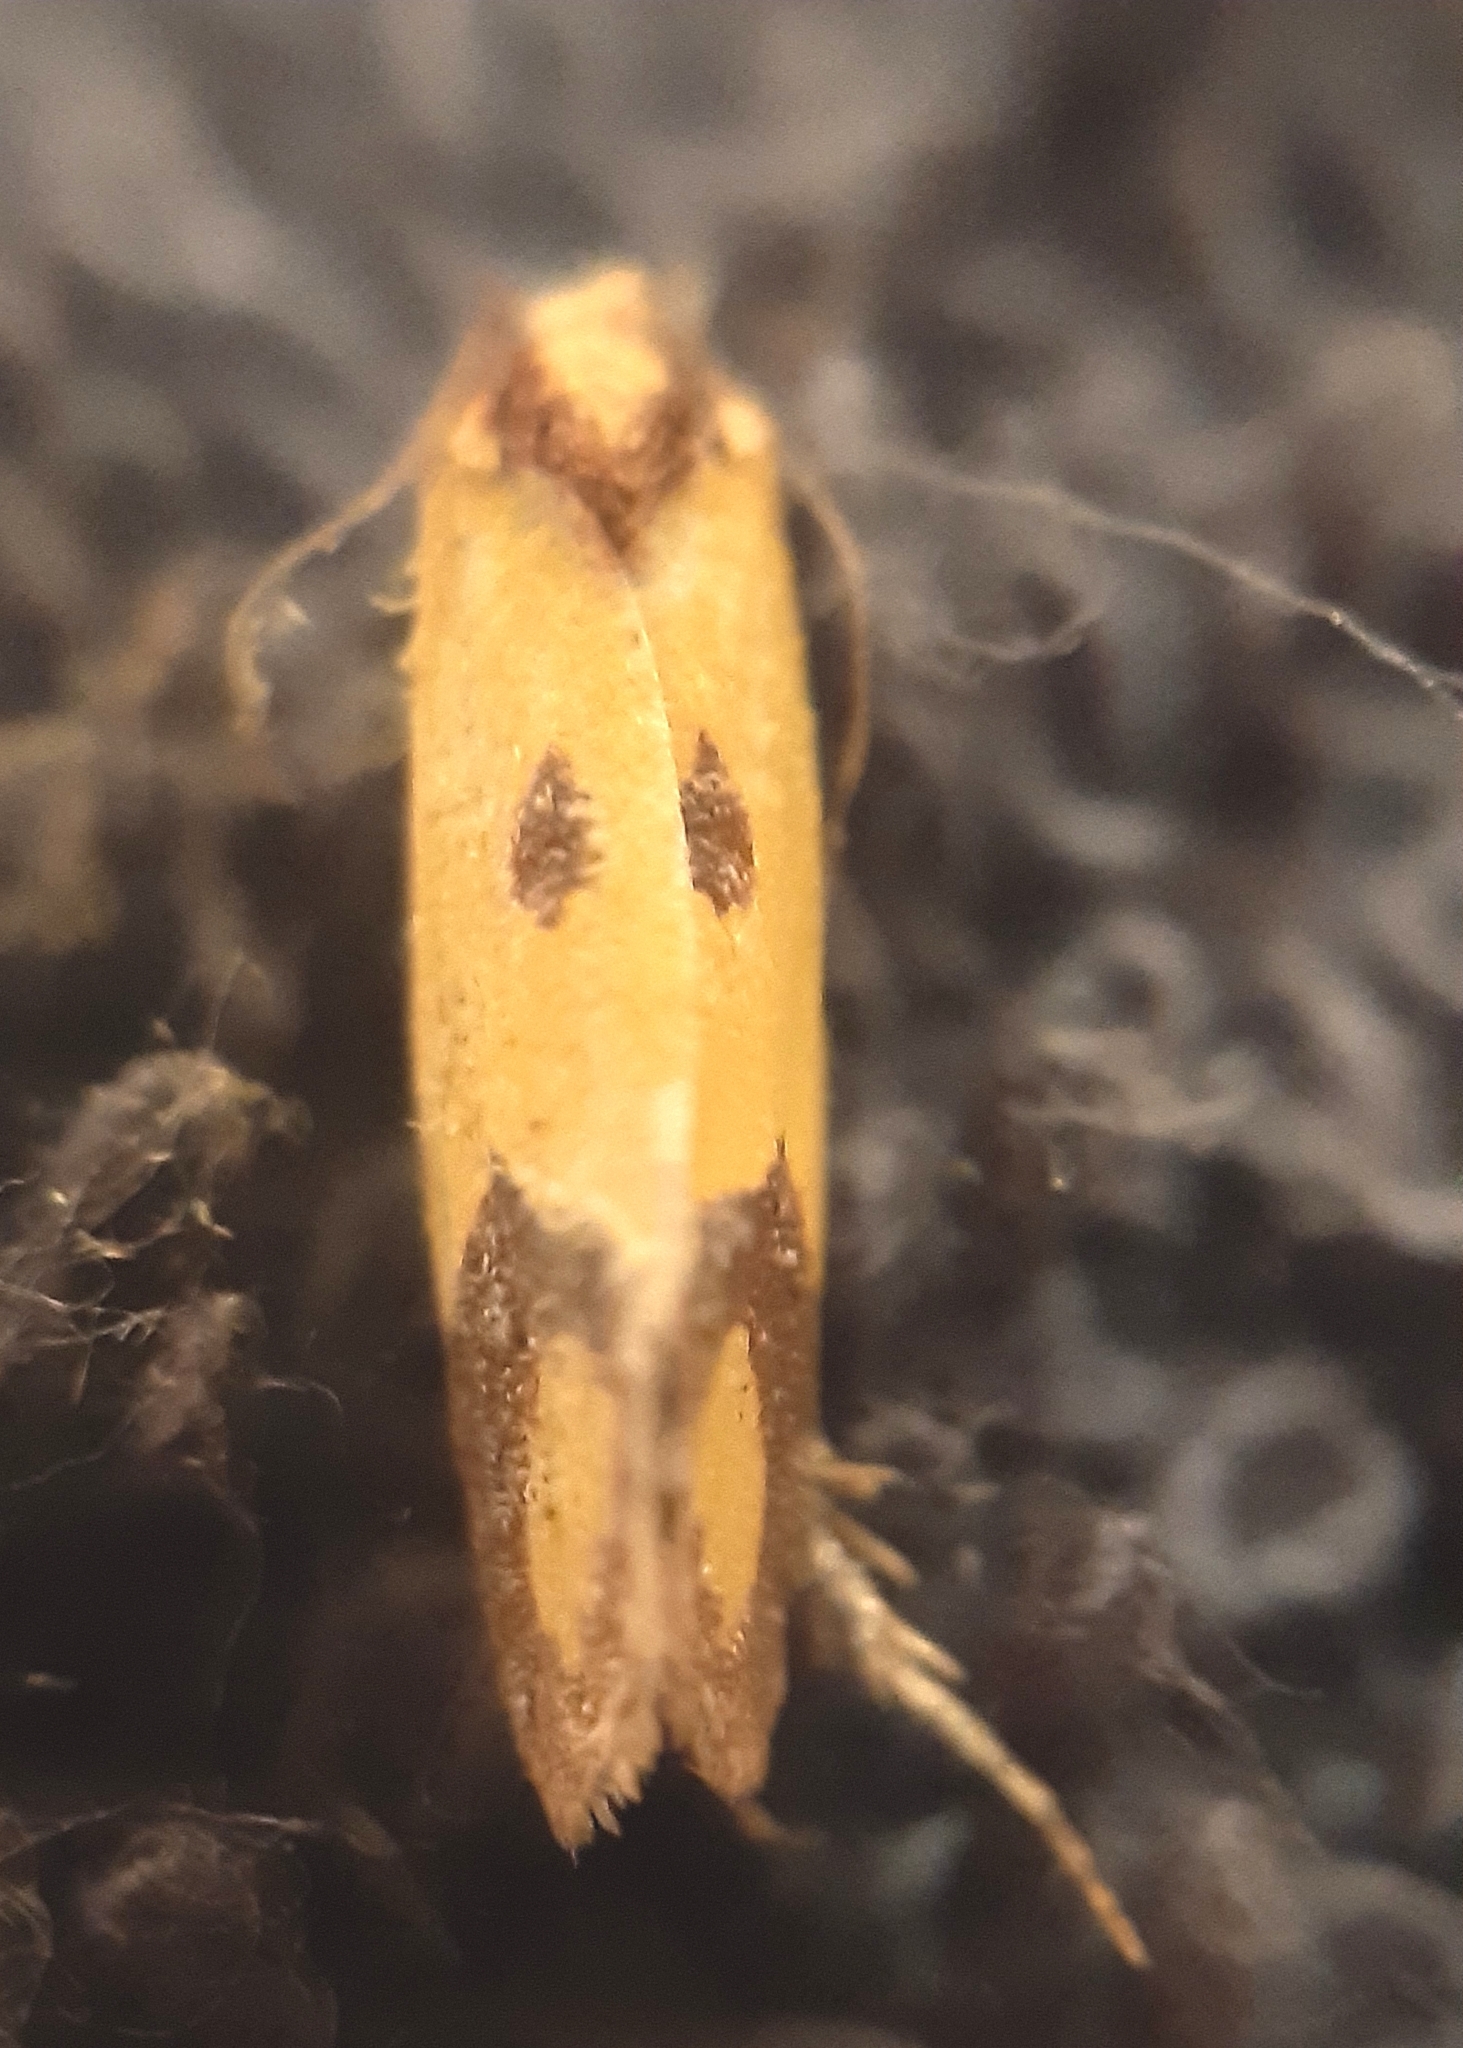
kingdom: Animalia
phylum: Arthropoda
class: Insecta
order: Lepidoptera
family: Tortricidae
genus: Agapeta
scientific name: Agapeta zoegana
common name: Sulfur knapweed root moth
